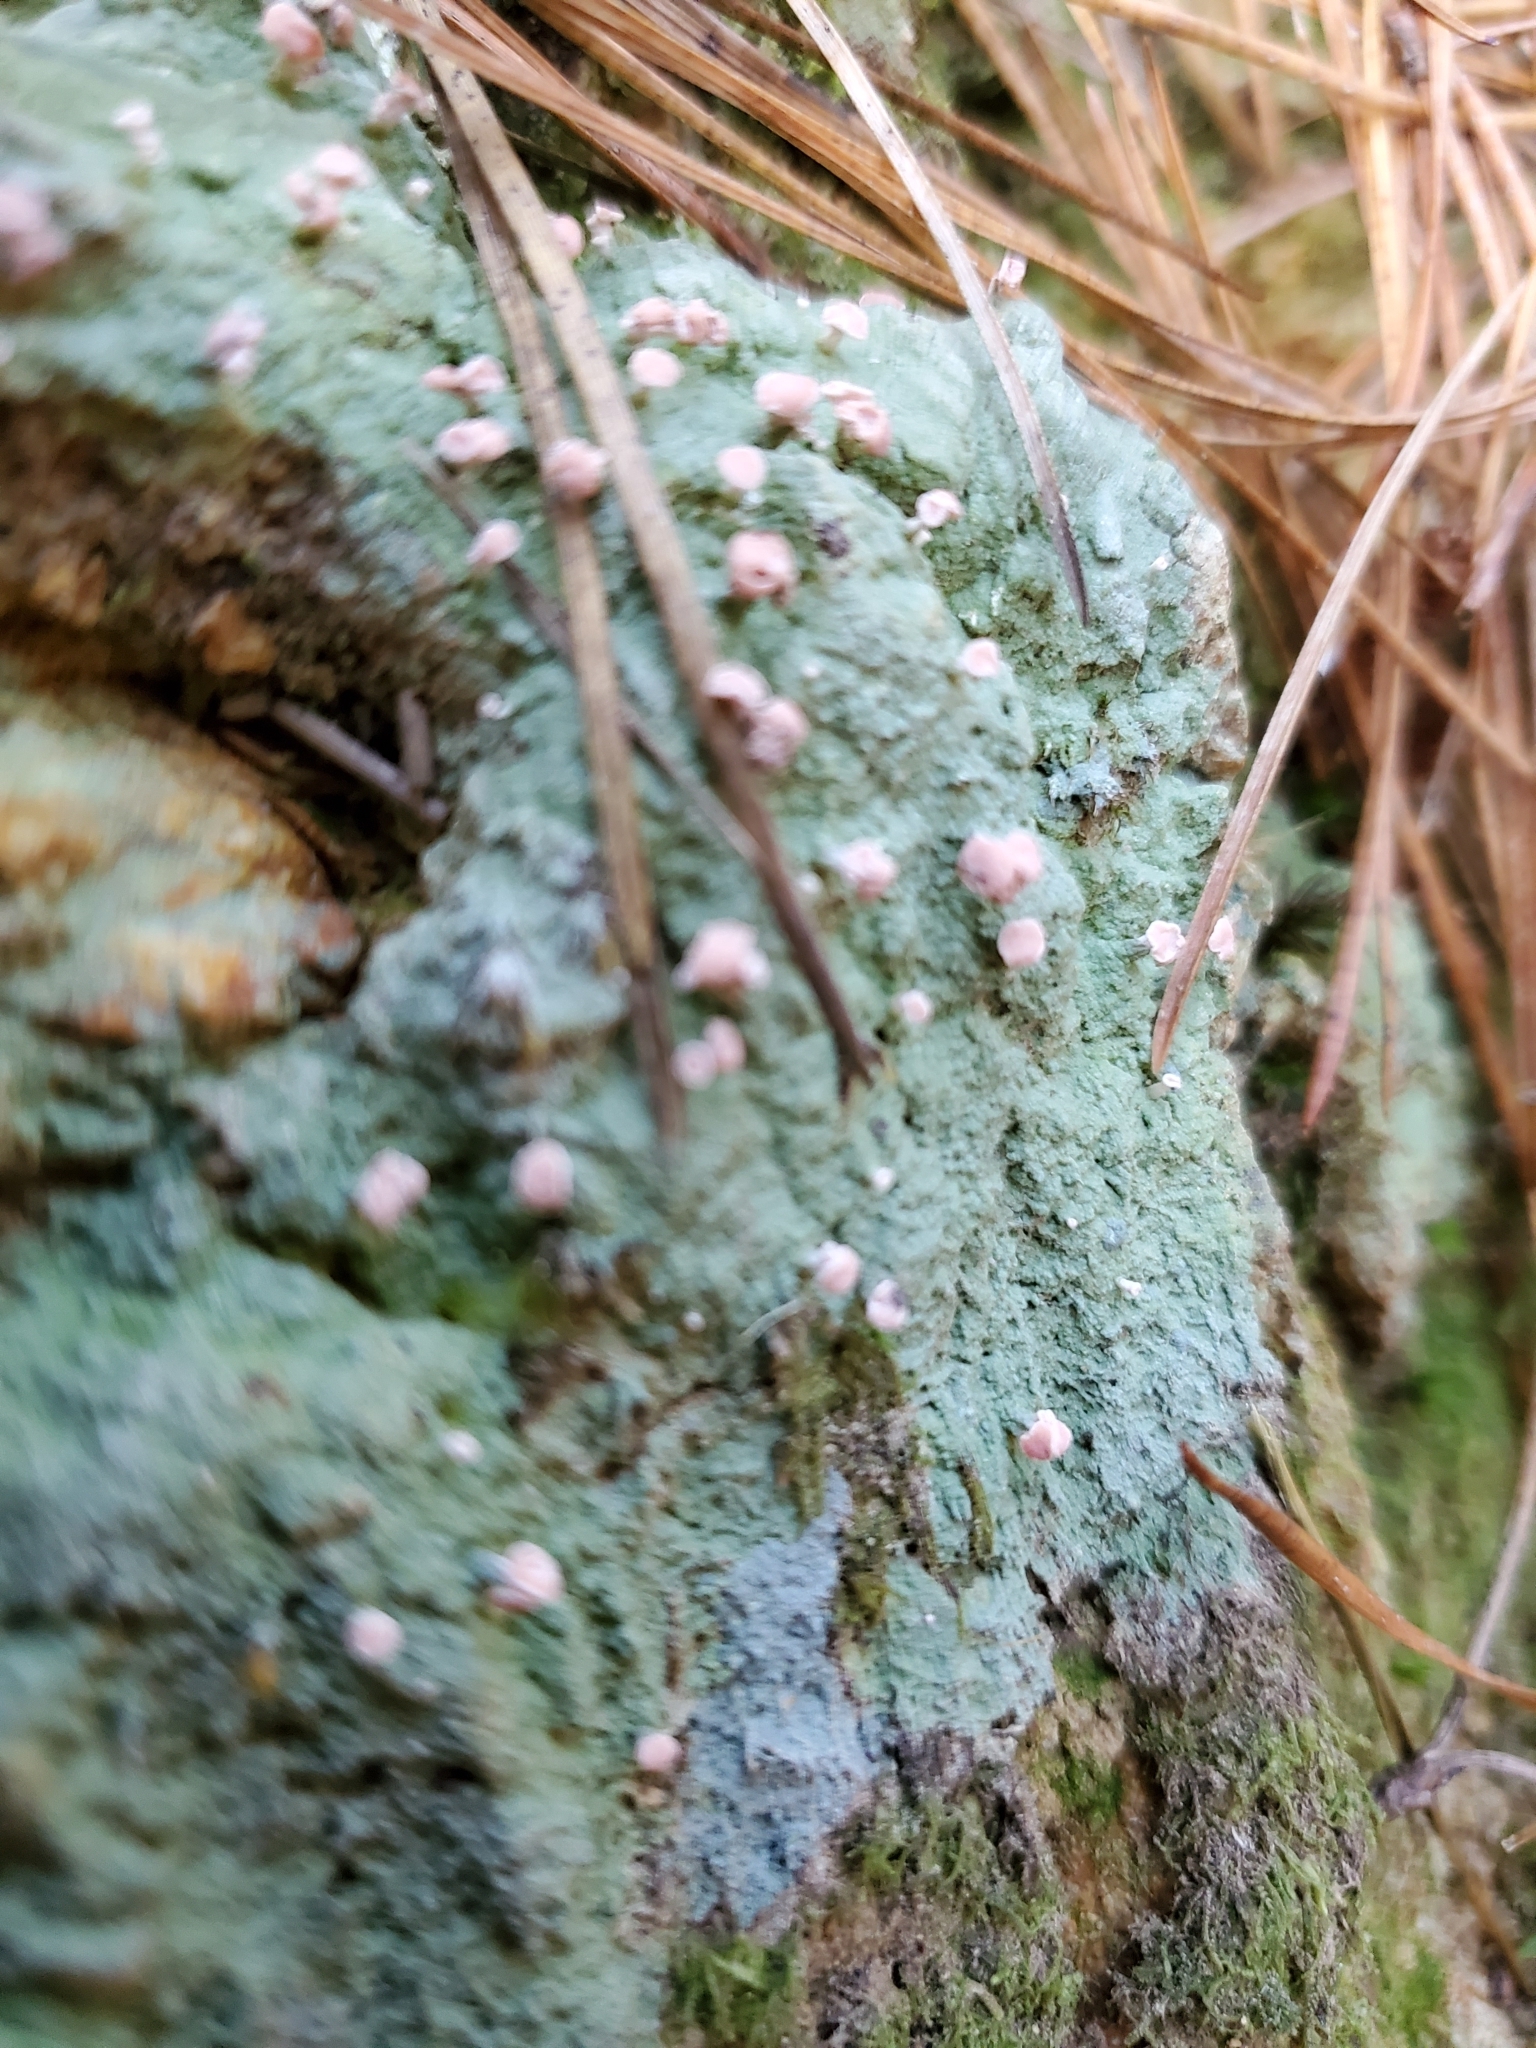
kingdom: Fungi
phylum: Ascomycota
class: Lecanoromycetes
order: Baeomycetales
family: Baeomycetaceae
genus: Baeomyces
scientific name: Baeomyces heteromorphus
